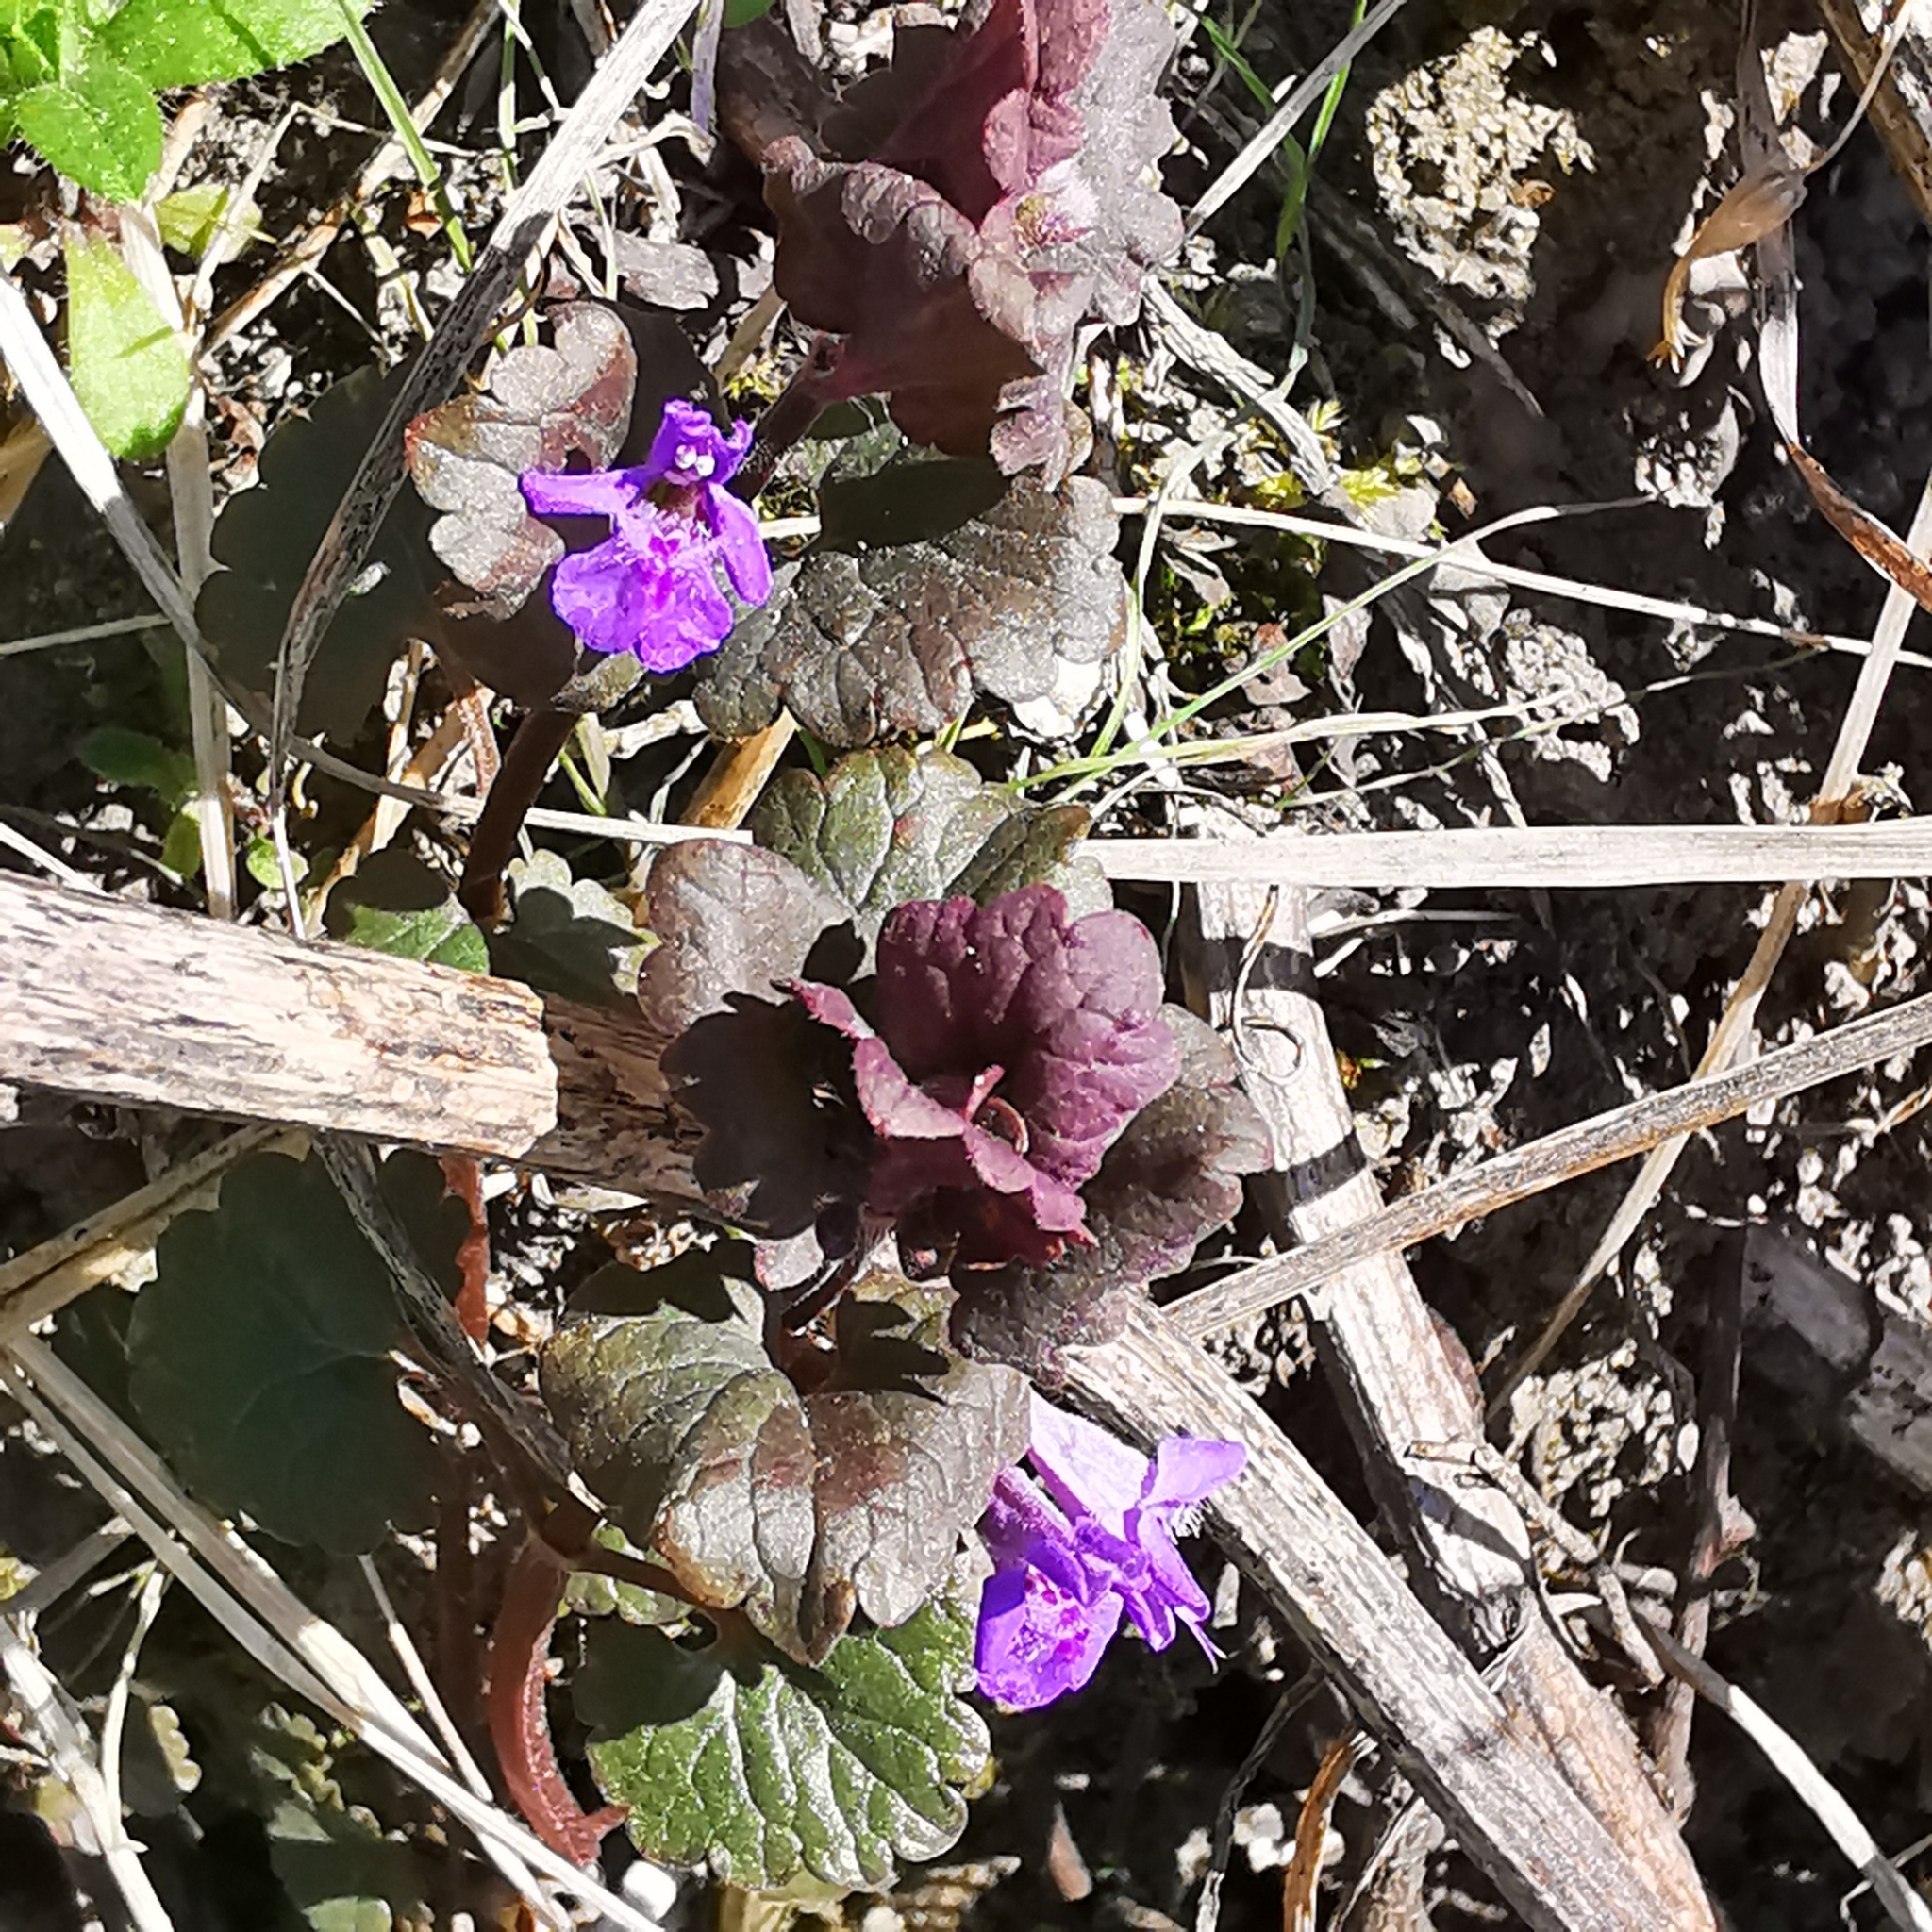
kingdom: Plantae
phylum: Tracheophyta
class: Magnoliopsida
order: Lamiales
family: Lamiaceae
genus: Glechoma
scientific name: Glechoma hederacea
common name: Ground ivy
